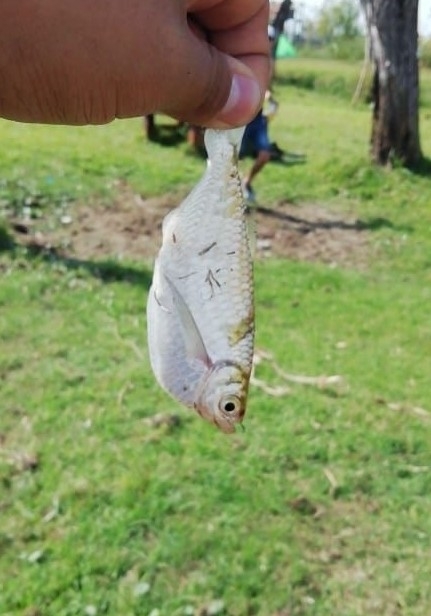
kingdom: Animalia
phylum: Chordata
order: Characiformes
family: Triportheidae
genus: Triportheus
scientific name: Triportheus nematurus
